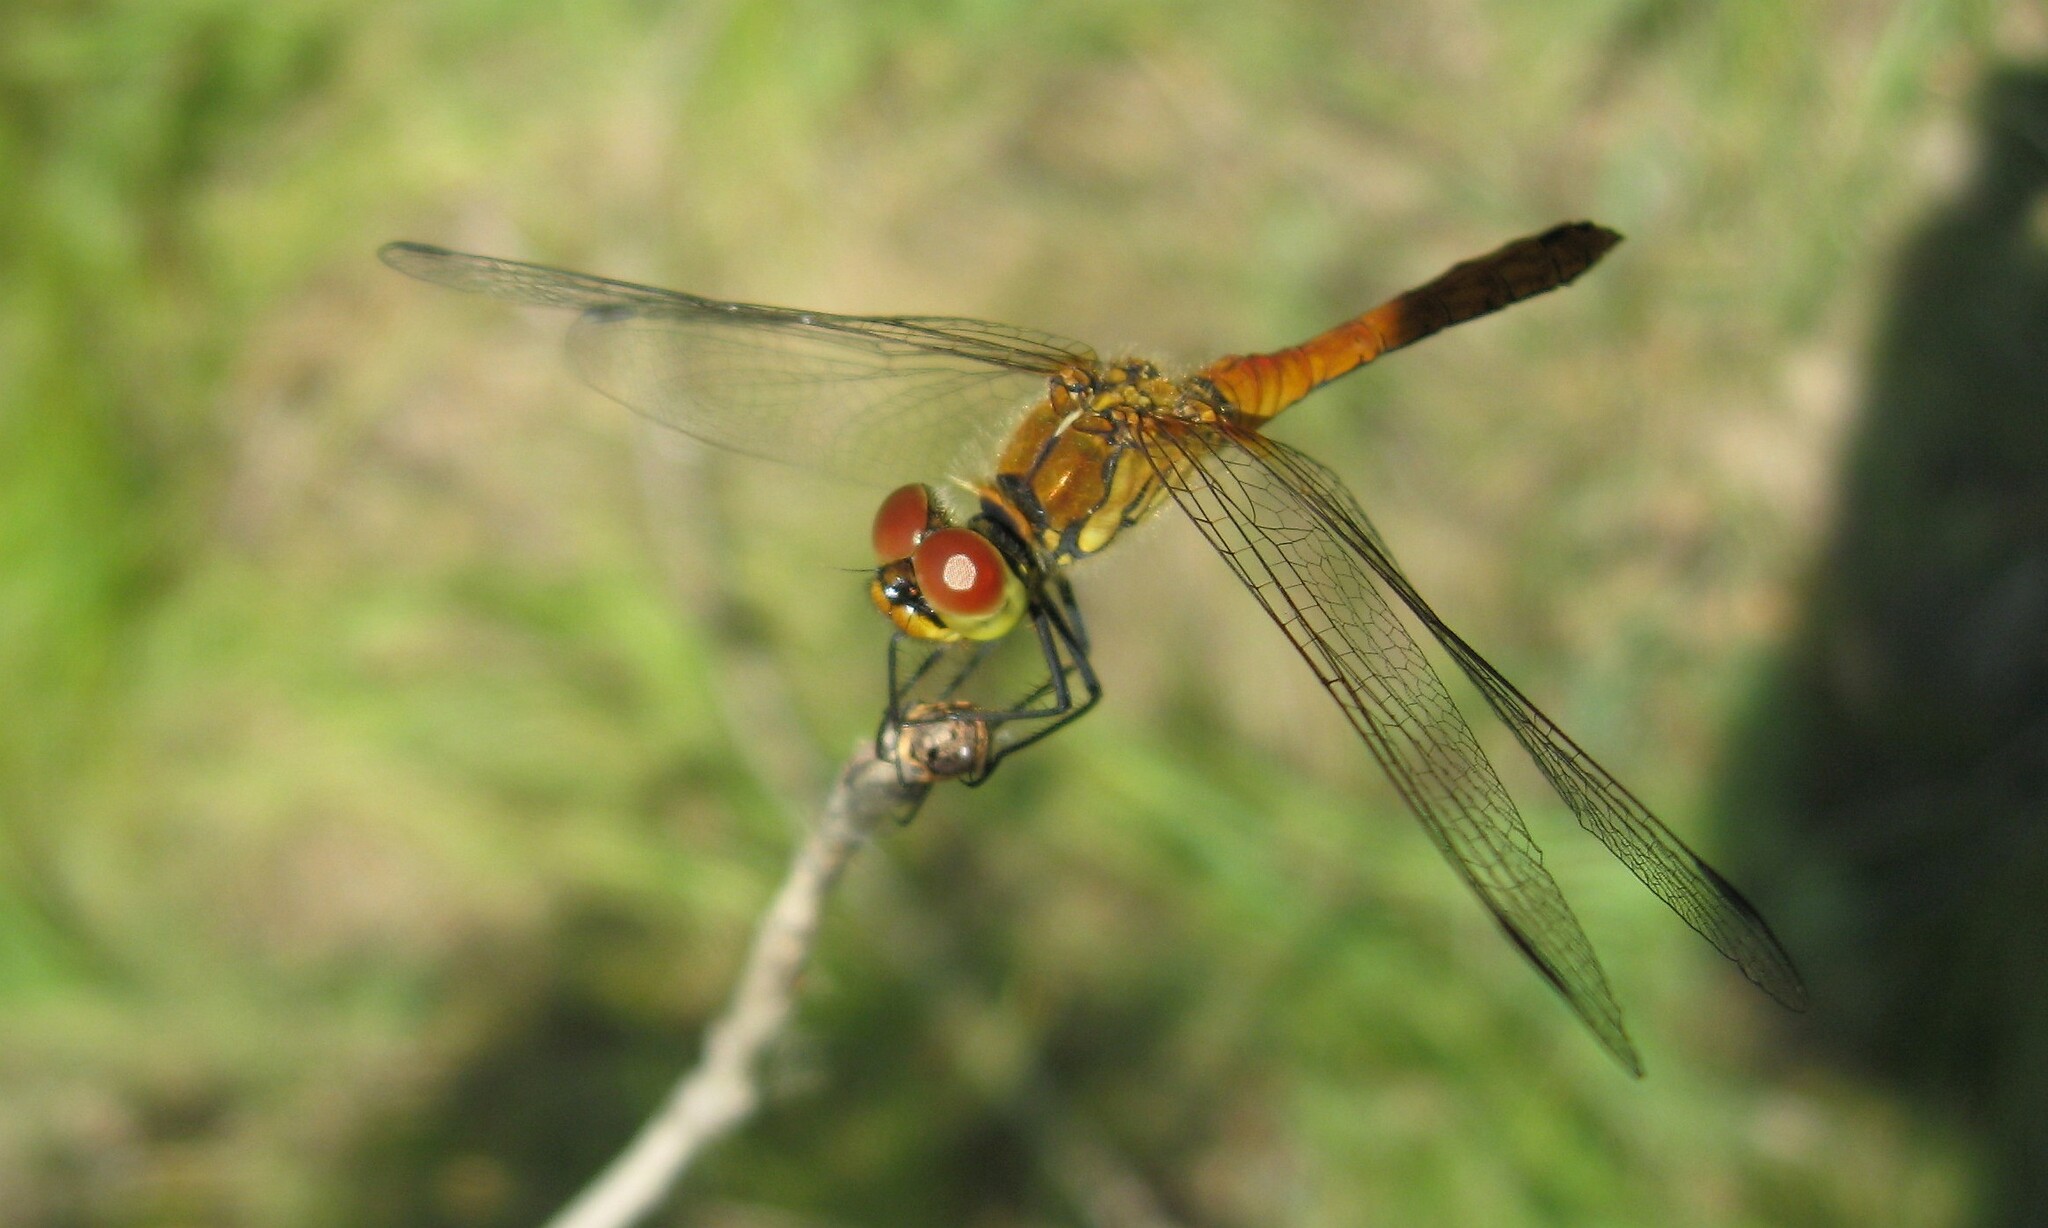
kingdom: Animalia
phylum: Arthropoda
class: Insecta
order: Odonata
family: Libellulidae
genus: Sympetrum
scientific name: Sympetrum sanguineum
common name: Ruddy darter
